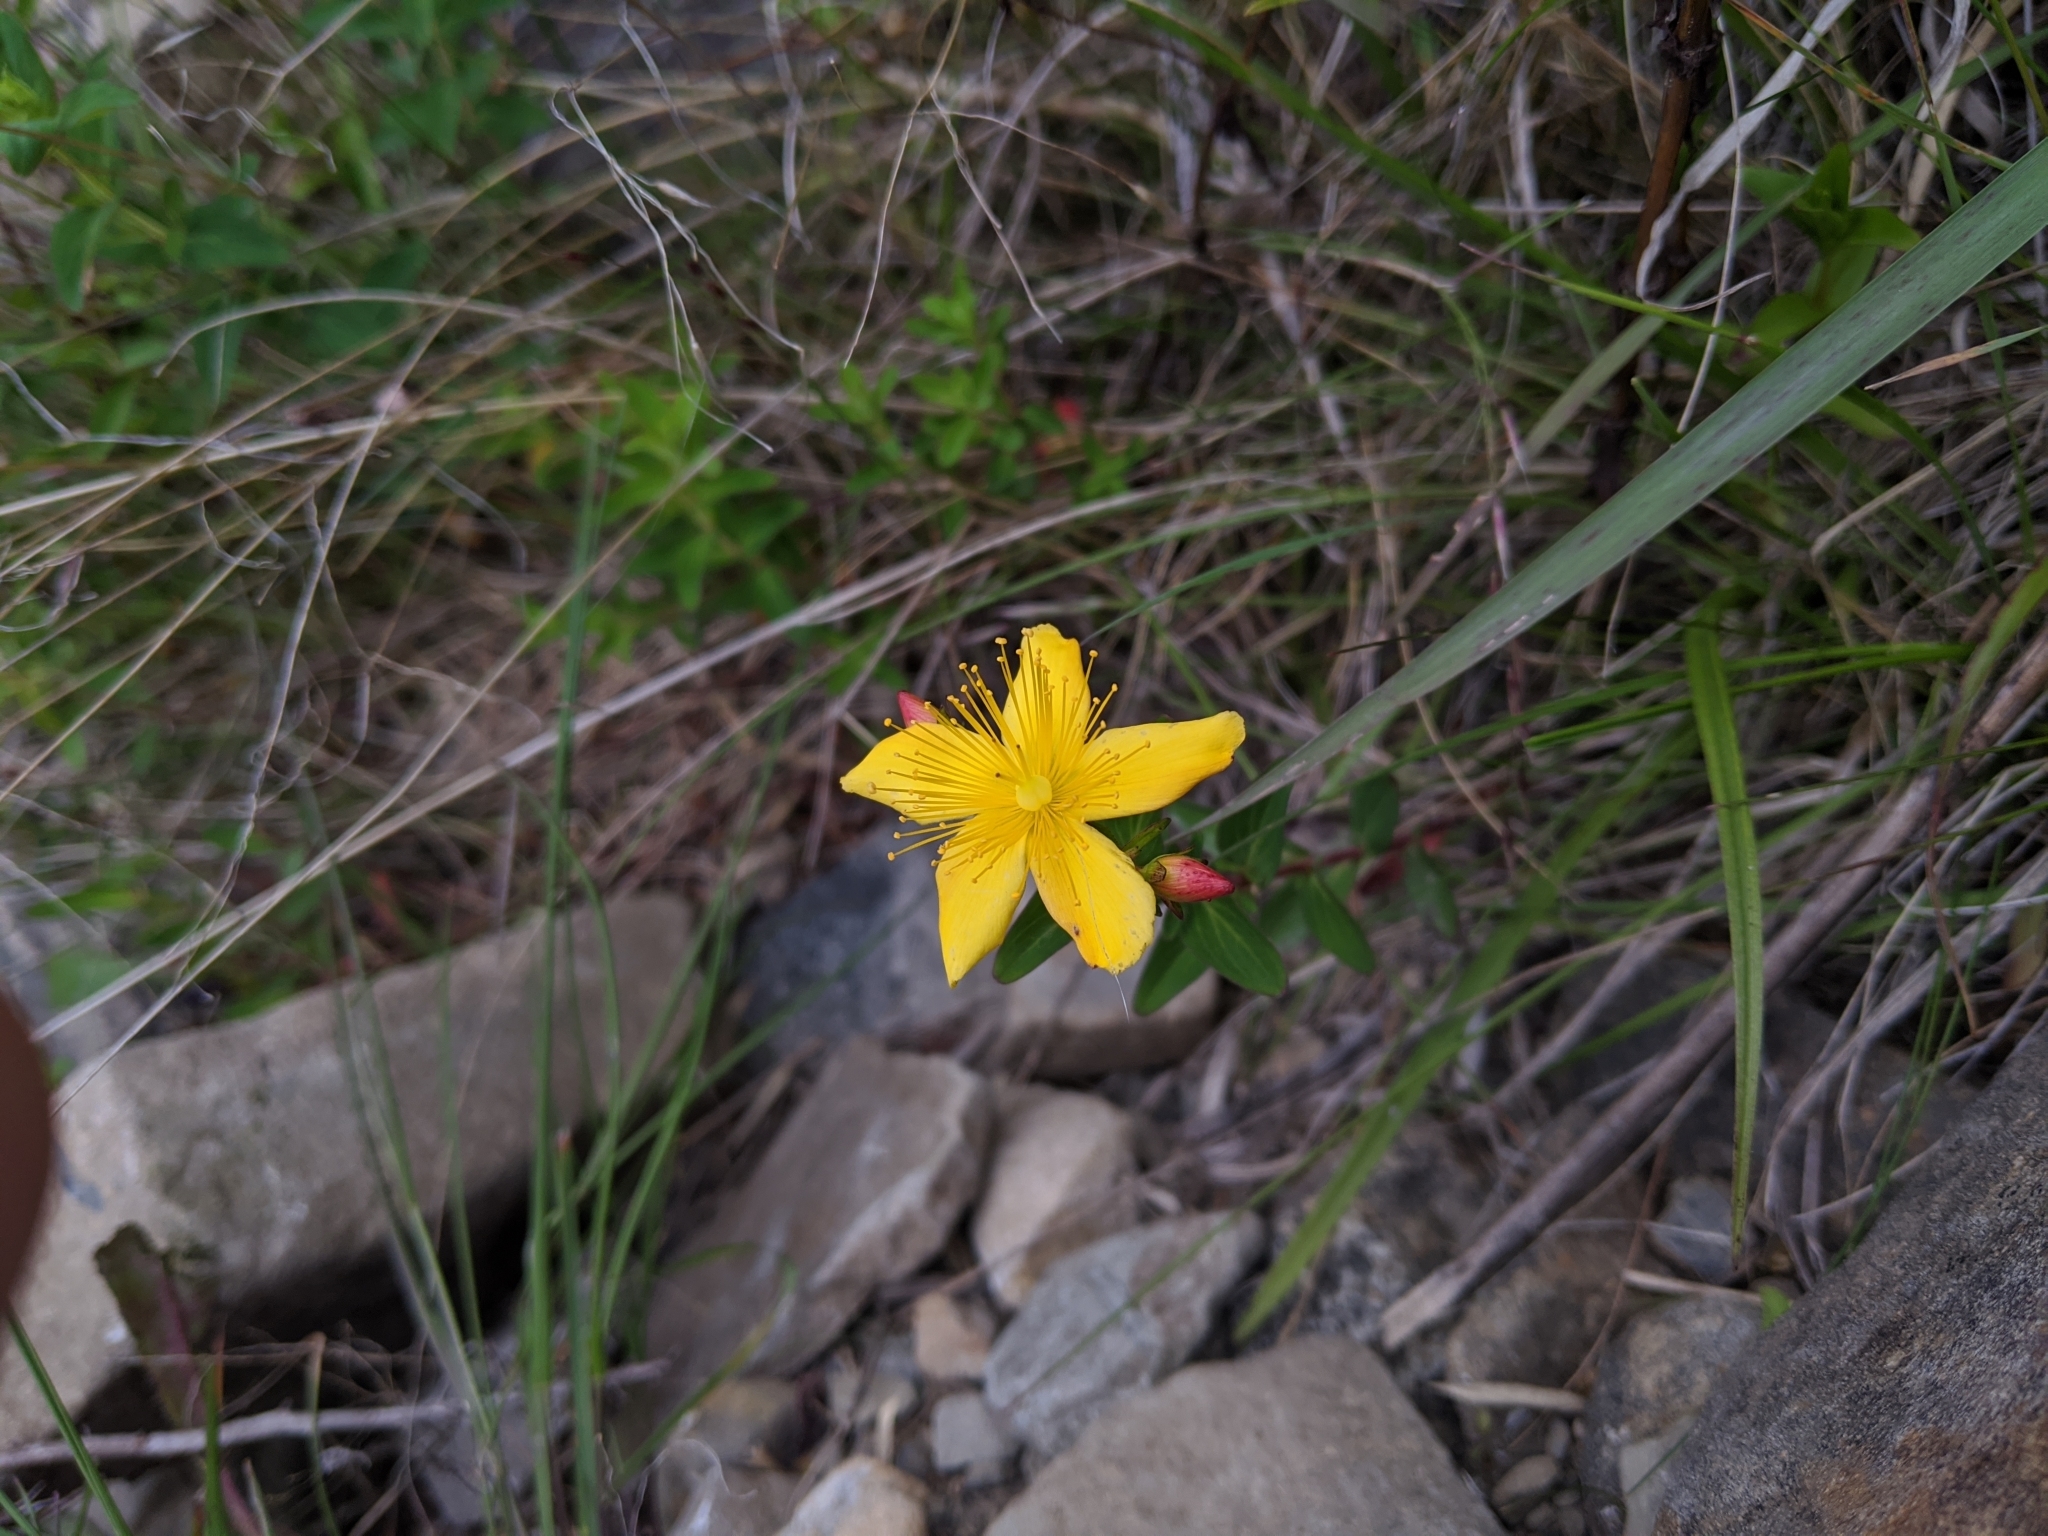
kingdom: Plantae
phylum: Tracheophyta
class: Magnoliopsida
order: Malpighiales
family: Hypericaceae
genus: Hypericum
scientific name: Hypericum nagasawae
